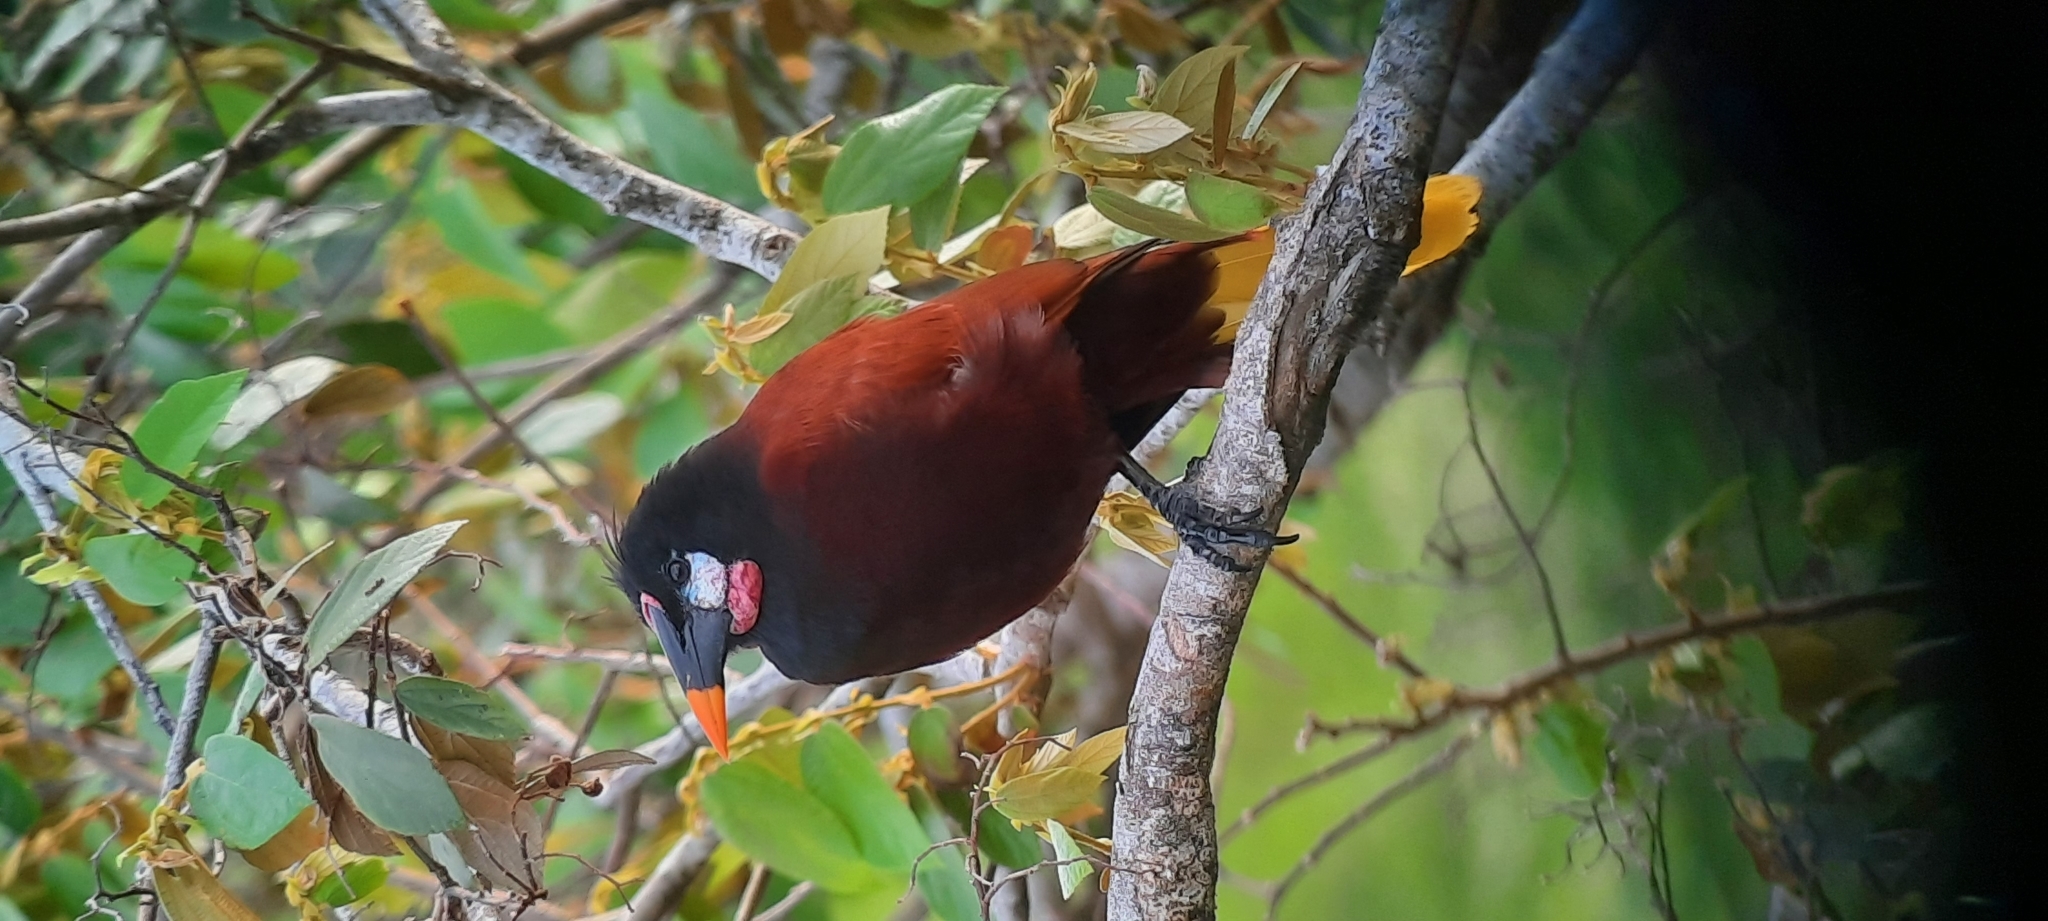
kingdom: Animalia
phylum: Chordata
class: Aves
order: Passeriformes
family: Icteridae
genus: Psarocolius
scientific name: Psarocolius montezuma
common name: Montezuma oropendola
